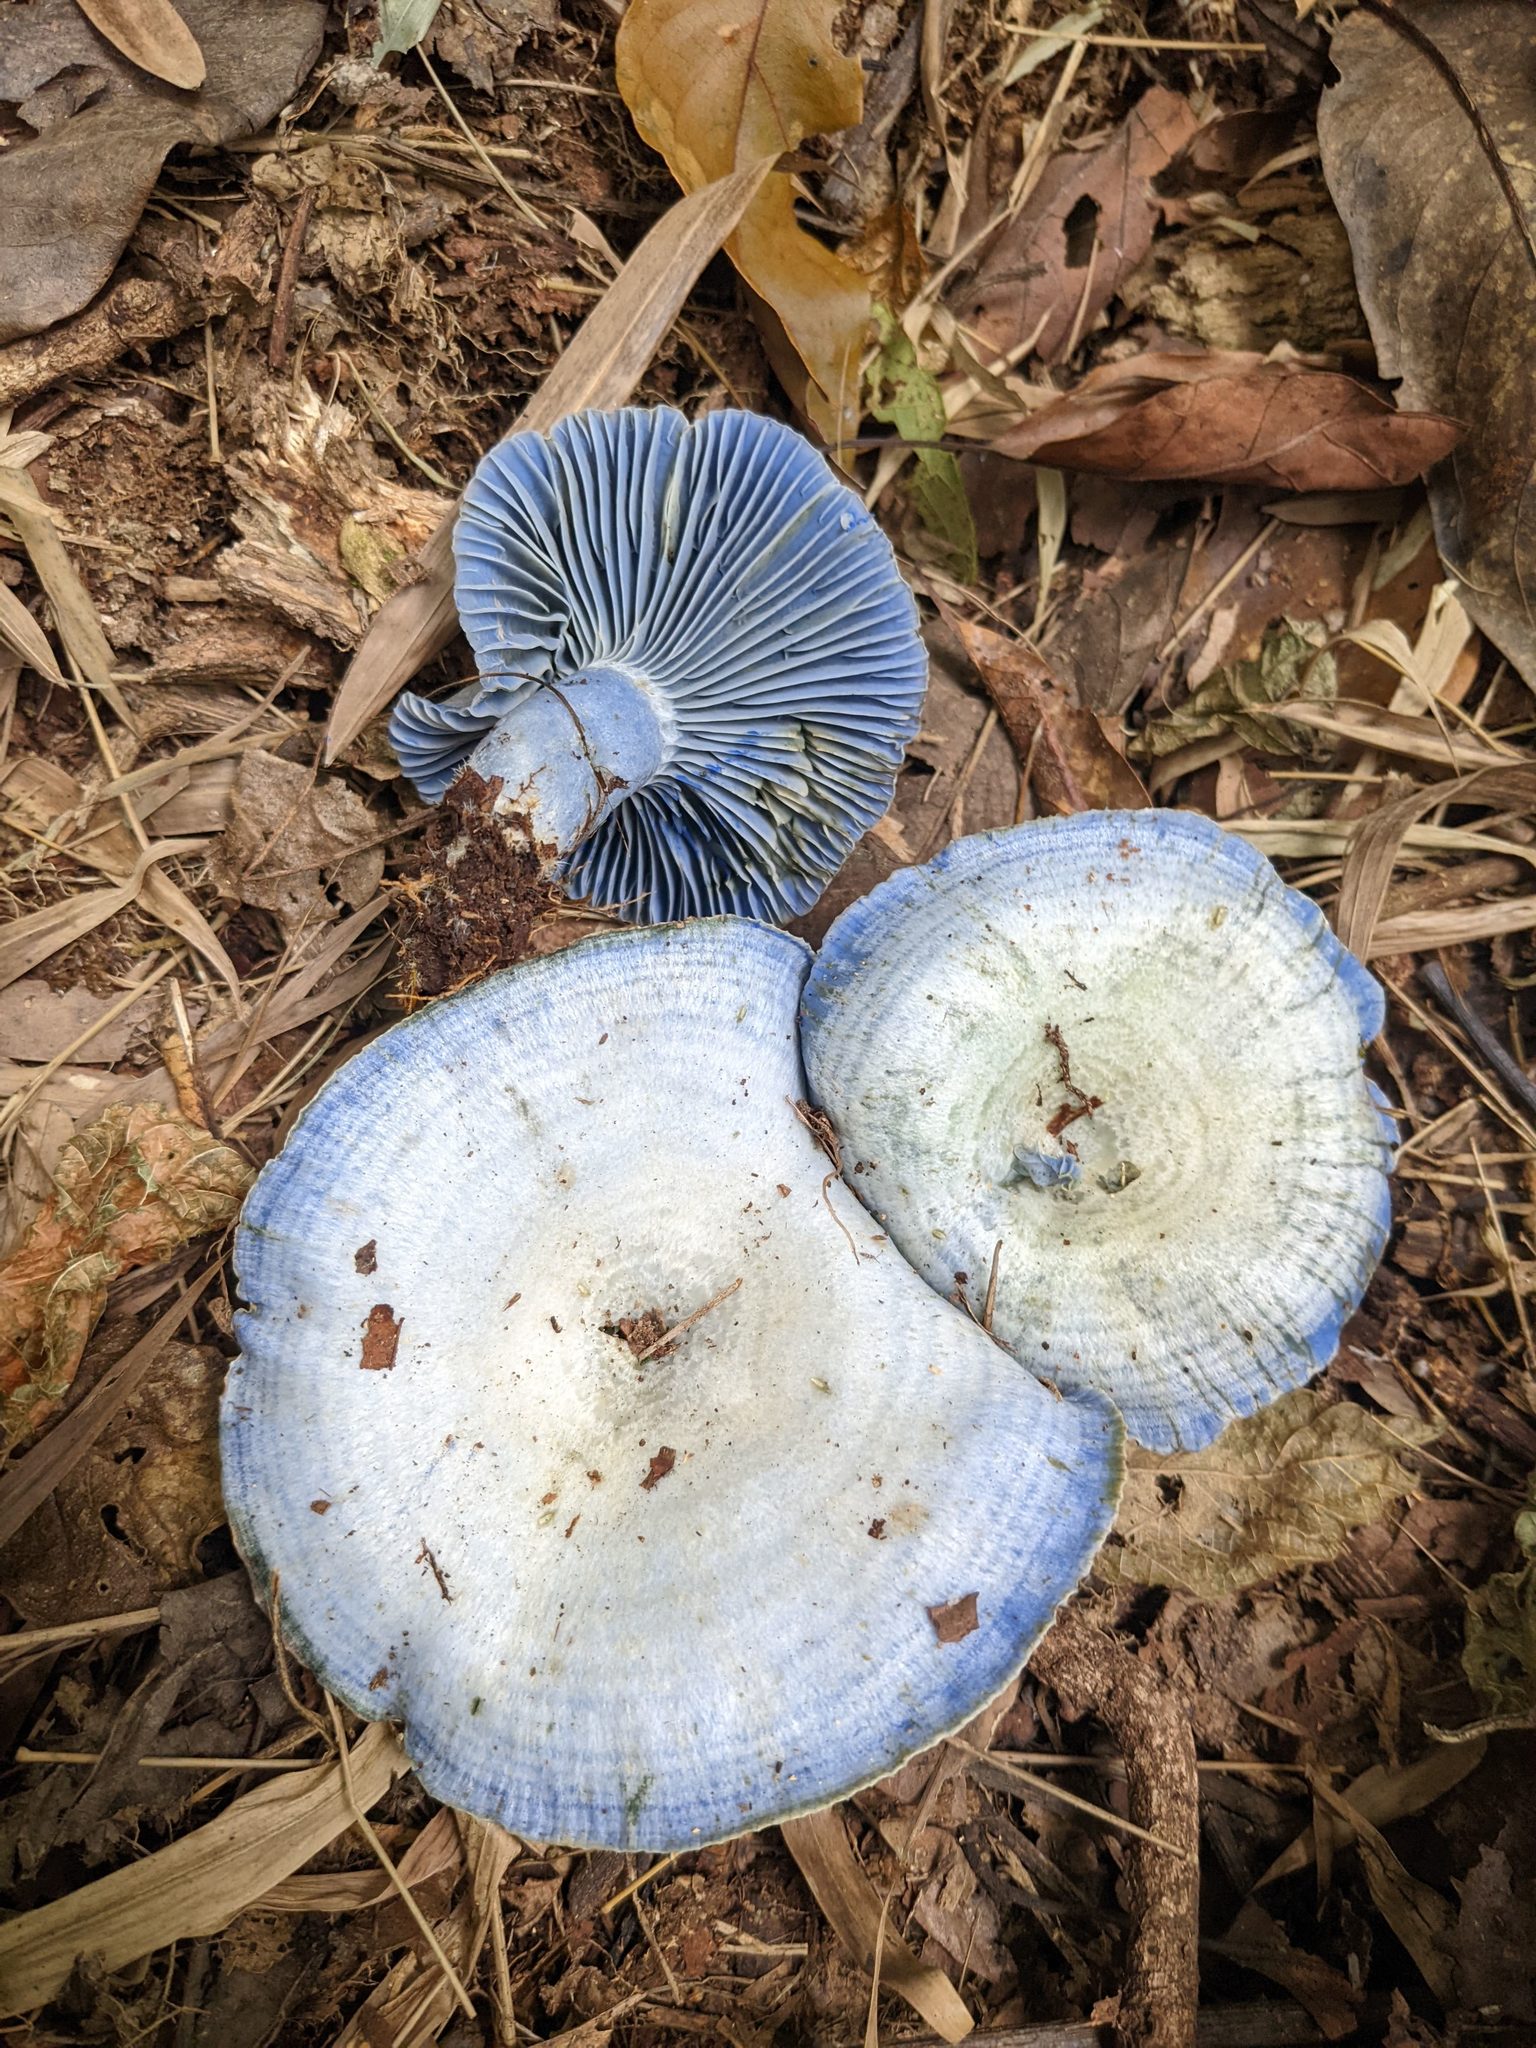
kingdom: Fungi
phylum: Basidiomycota
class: Agaricomycetes
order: Russulales
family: Russulaceae
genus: Lactarius
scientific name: Lactarius indigo
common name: Indigo milk cap
